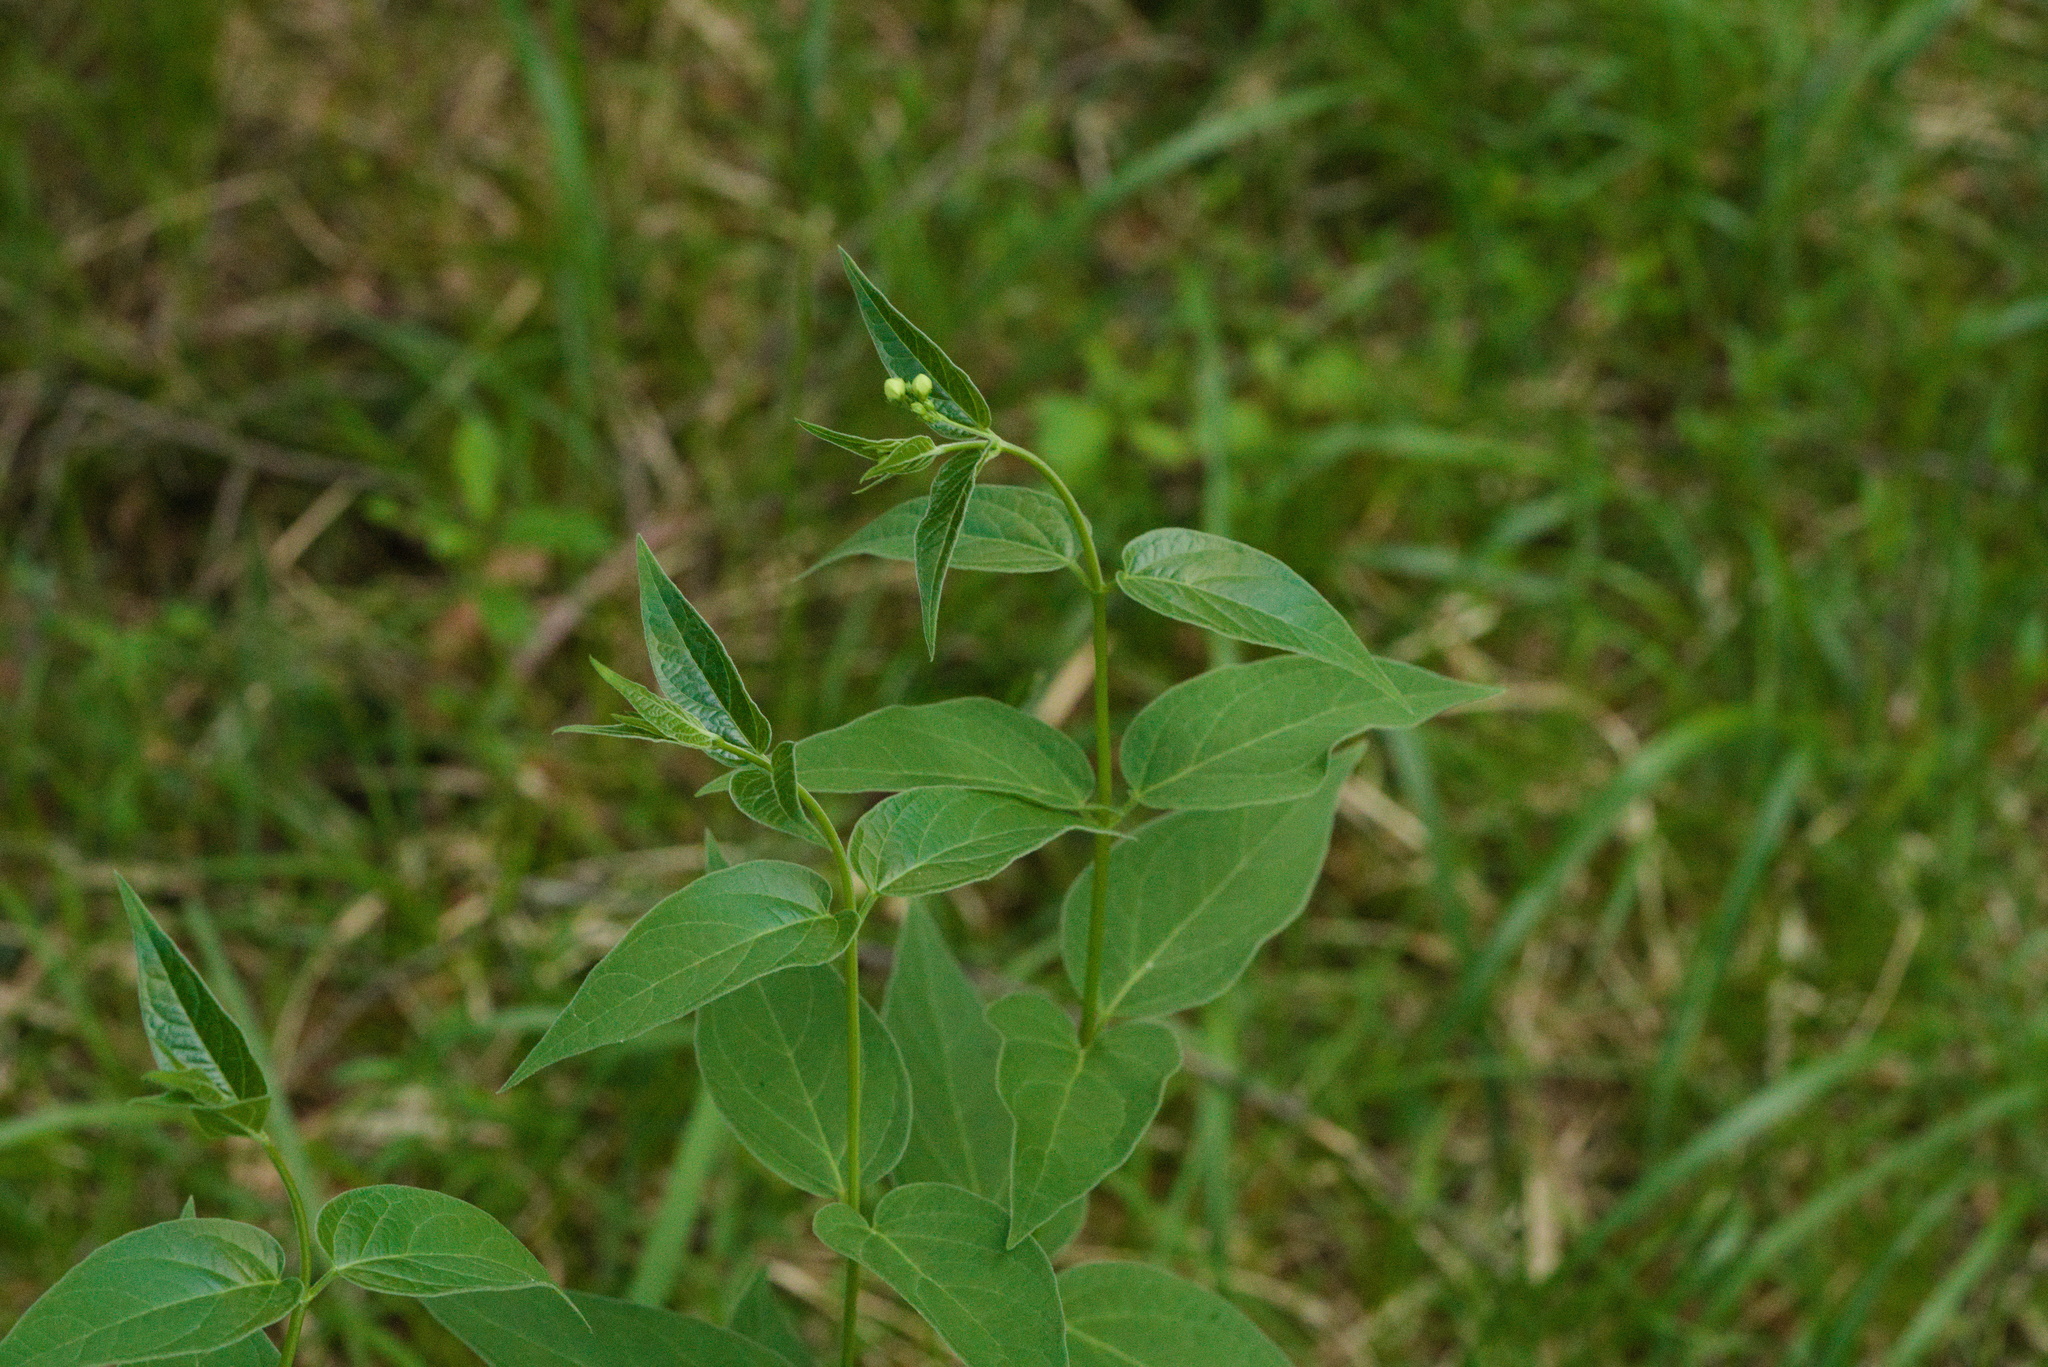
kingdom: Plantae
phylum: Tracheophyta
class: Magnoliopsida
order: Gentianales
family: Apocynaceae
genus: Vincetoxicum
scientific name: Vincetoxicum hirundinaria
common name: White swallowwort
